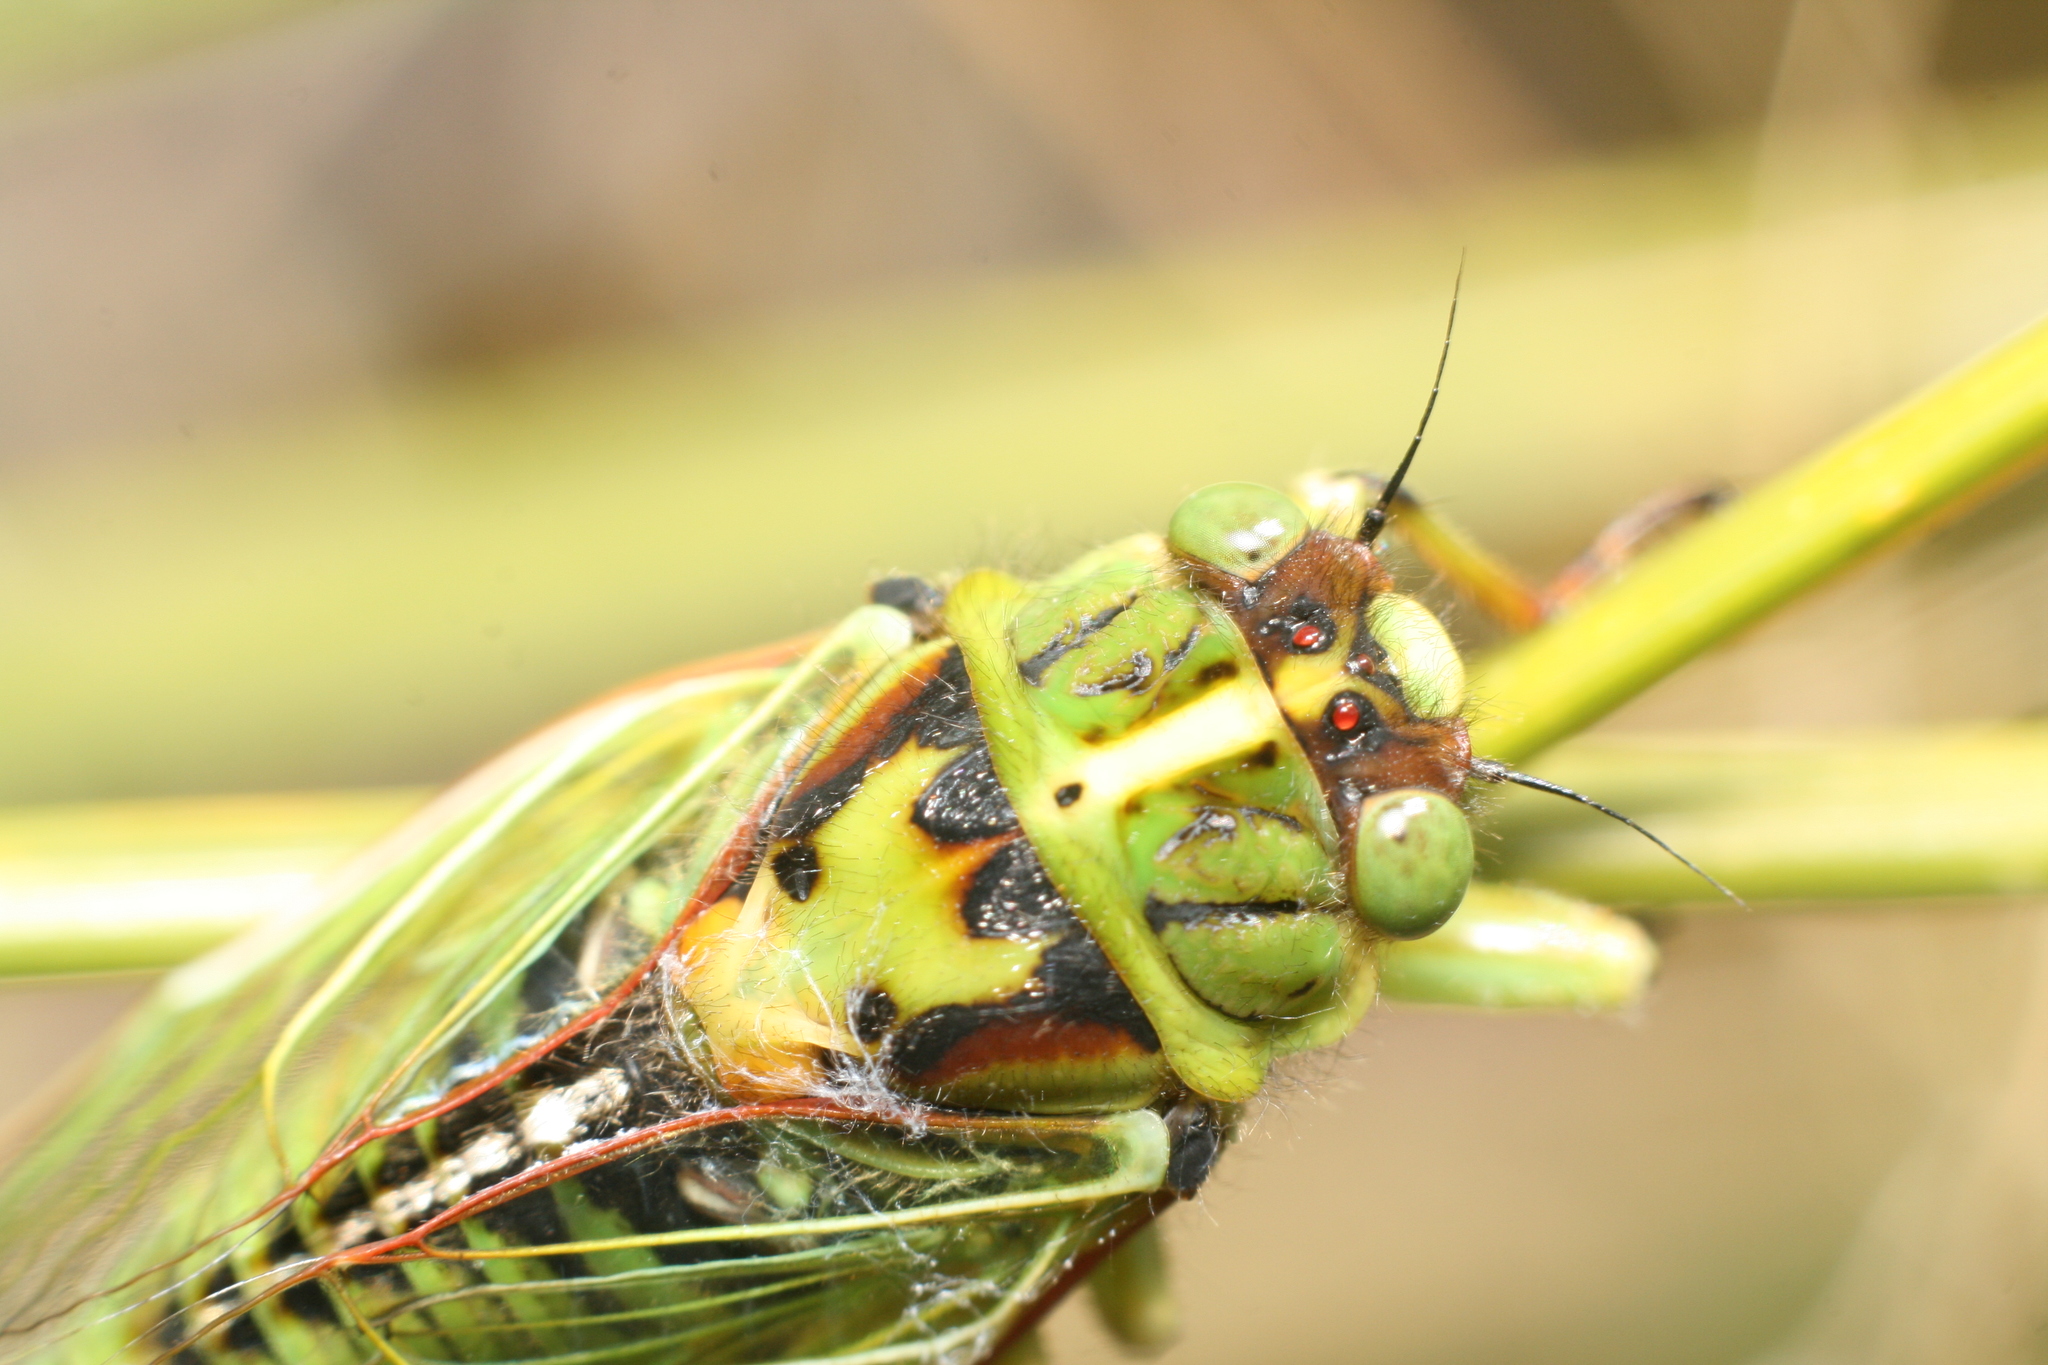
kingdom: Animalia
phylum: Arthropoda
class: Insecta
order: Hemiptera
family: Cicadidae
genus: Kikihia
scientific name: Kikihia horologium
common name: Clock cicada
